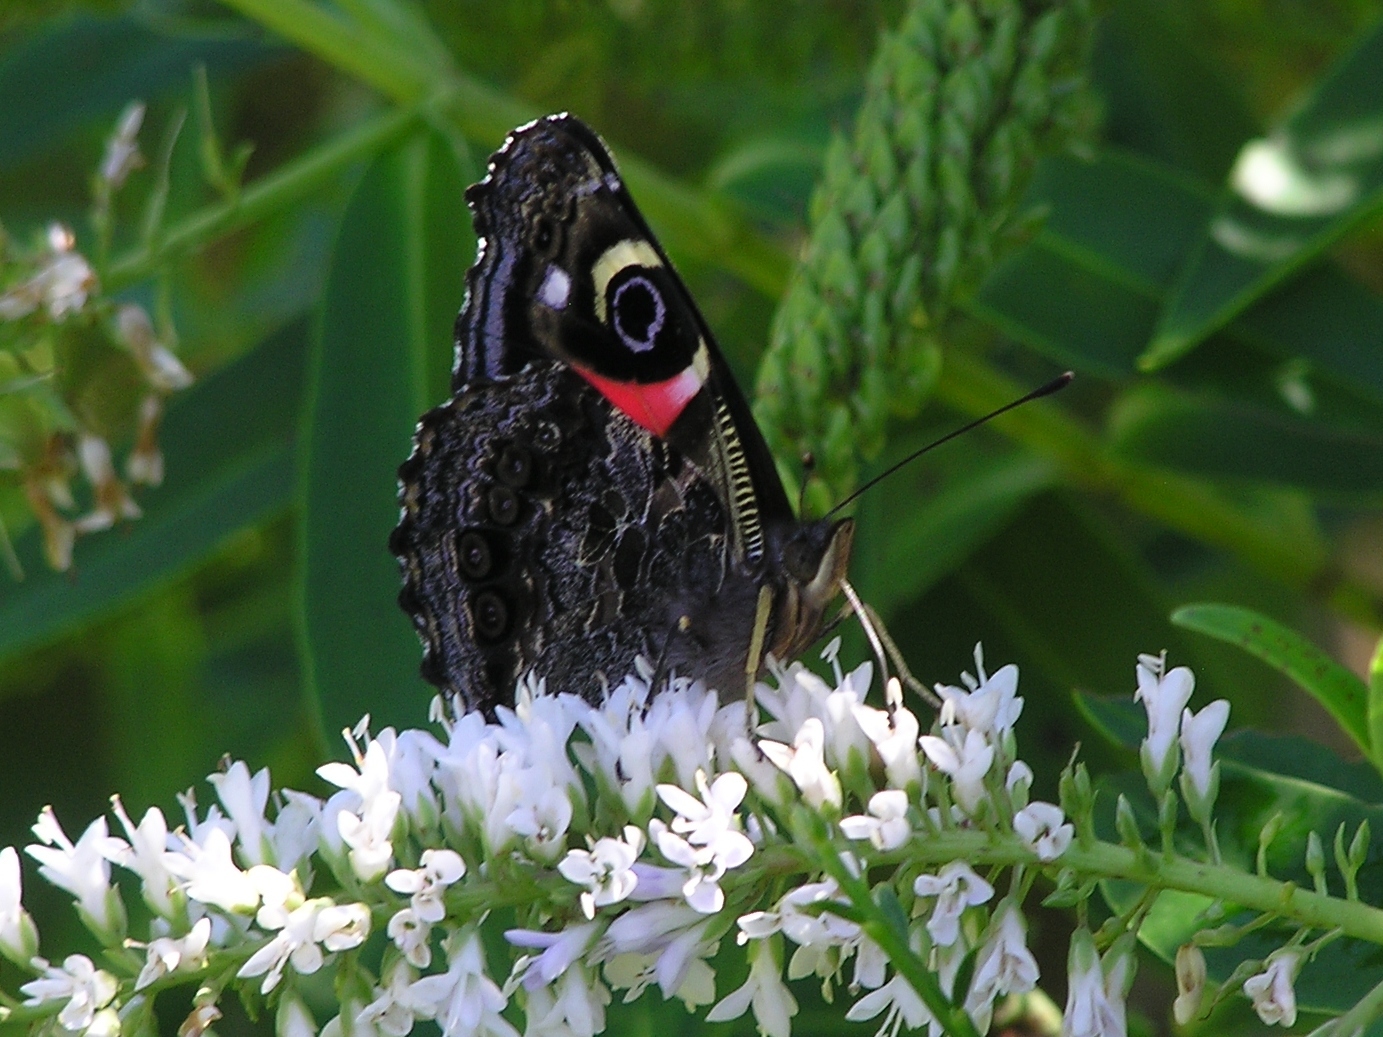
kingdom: Animalia
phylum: Arthropoda
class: Insecta
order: Lepidoptera
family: Nymphalidae
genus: Vanessa
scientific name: Vanessa gonerilla
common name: New zealand red admiral
